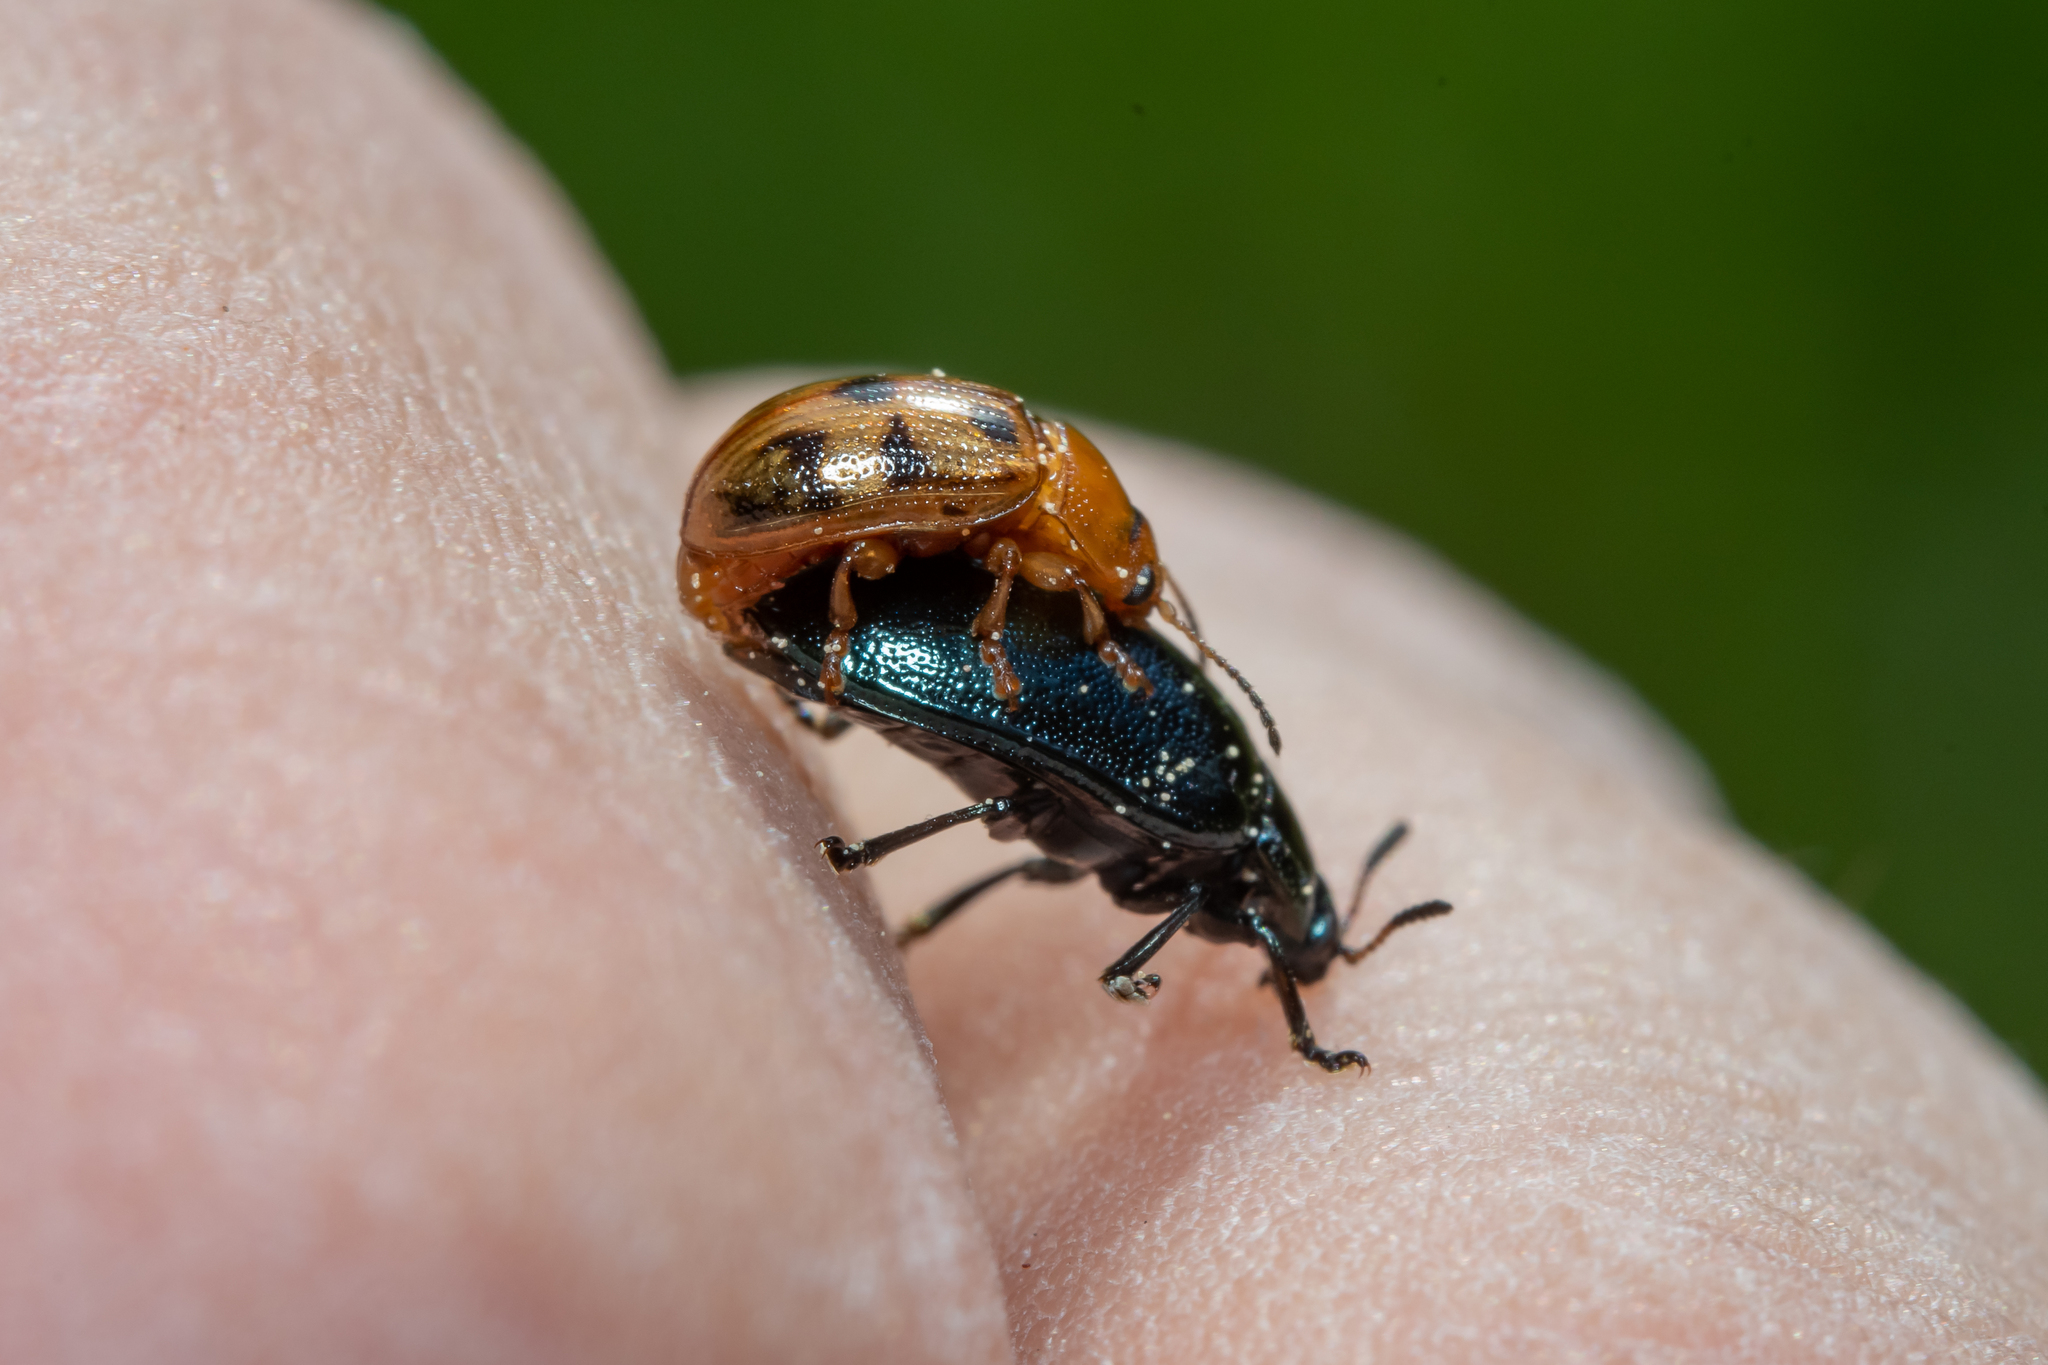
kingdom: Animalia
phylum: Arthropoda
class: Insecta
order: Coleoptera
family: Chrysomelidae
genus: Gonioctena
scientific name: Gonioctena quinquepunctata
